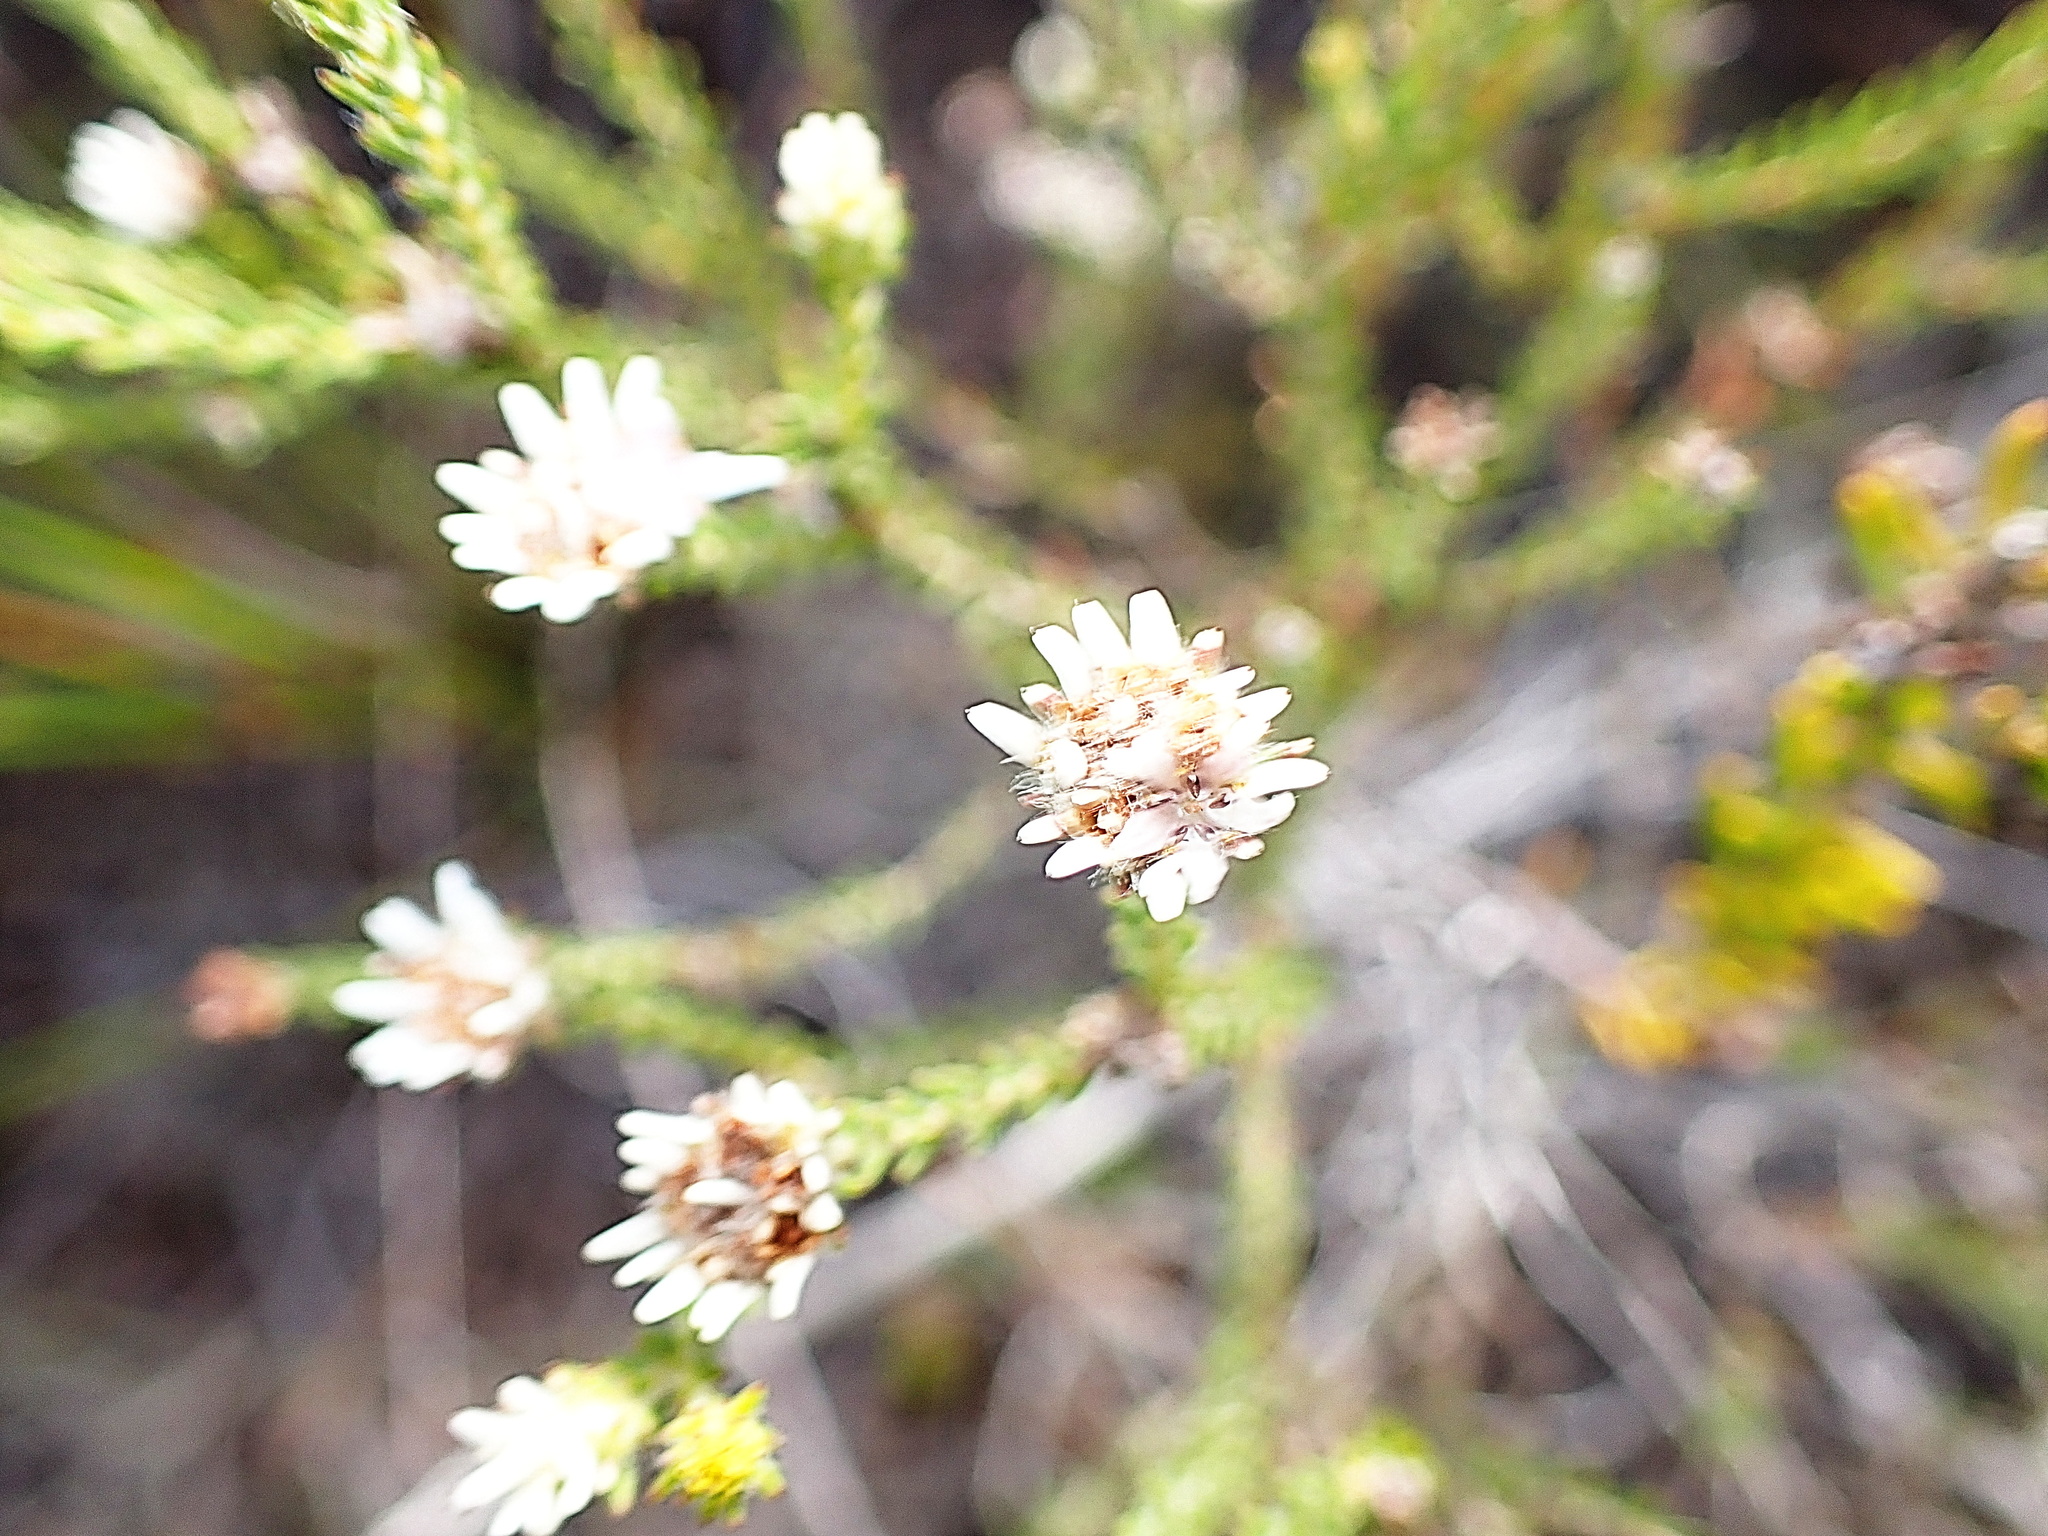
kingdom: Plantae
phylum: Tracheophyta
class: Magnoliopsida
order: Bruniales
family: Bruniaceae
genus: Staavia
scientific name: Staavia radiata
